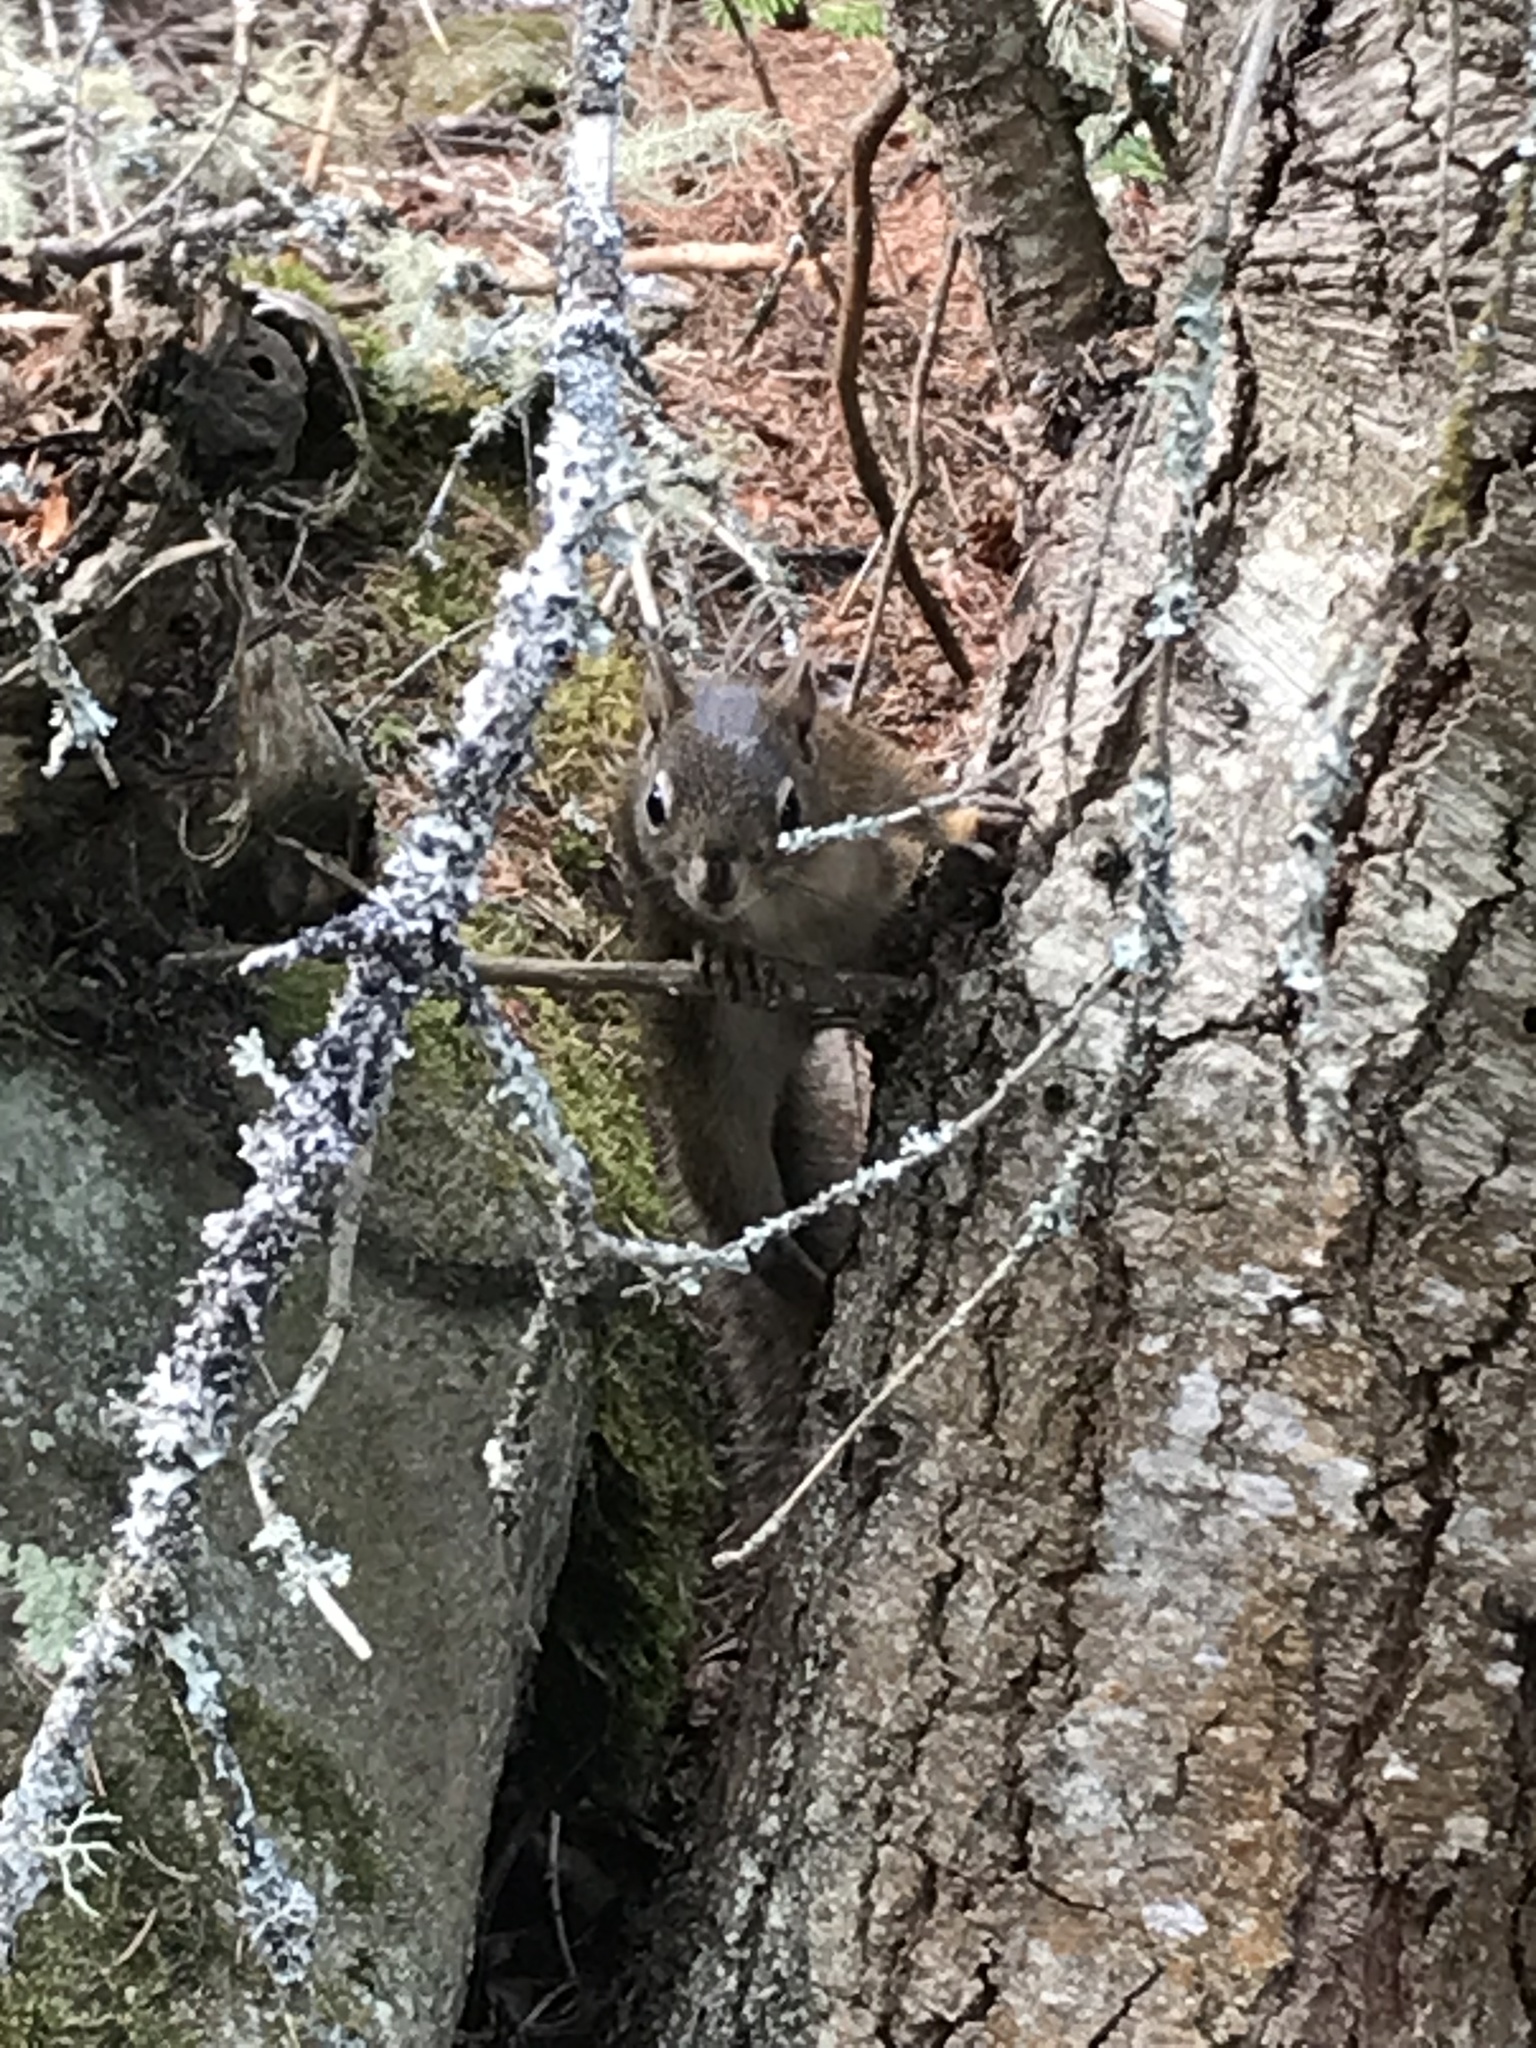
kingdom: Animalia
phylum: Chordata
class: Mammalia
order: Rodentia
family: Sciuridae
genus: Tamiasciurus
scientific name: Tamiasciurus hudsonicus
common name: Red squirrel
